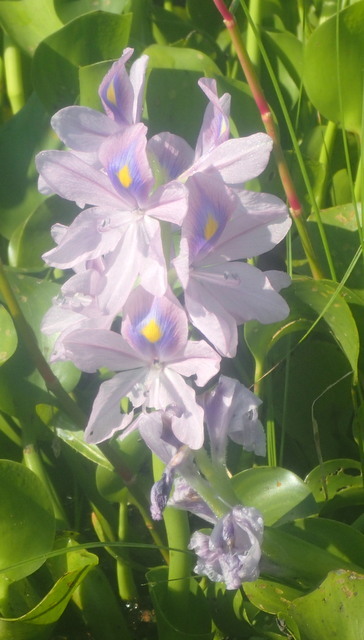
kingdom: Plantae
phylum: Tracheophyta
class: Liliopsida
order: Commelinales
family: Pontederiaceae
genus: Pontederia
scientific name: Pontederia crassipes
